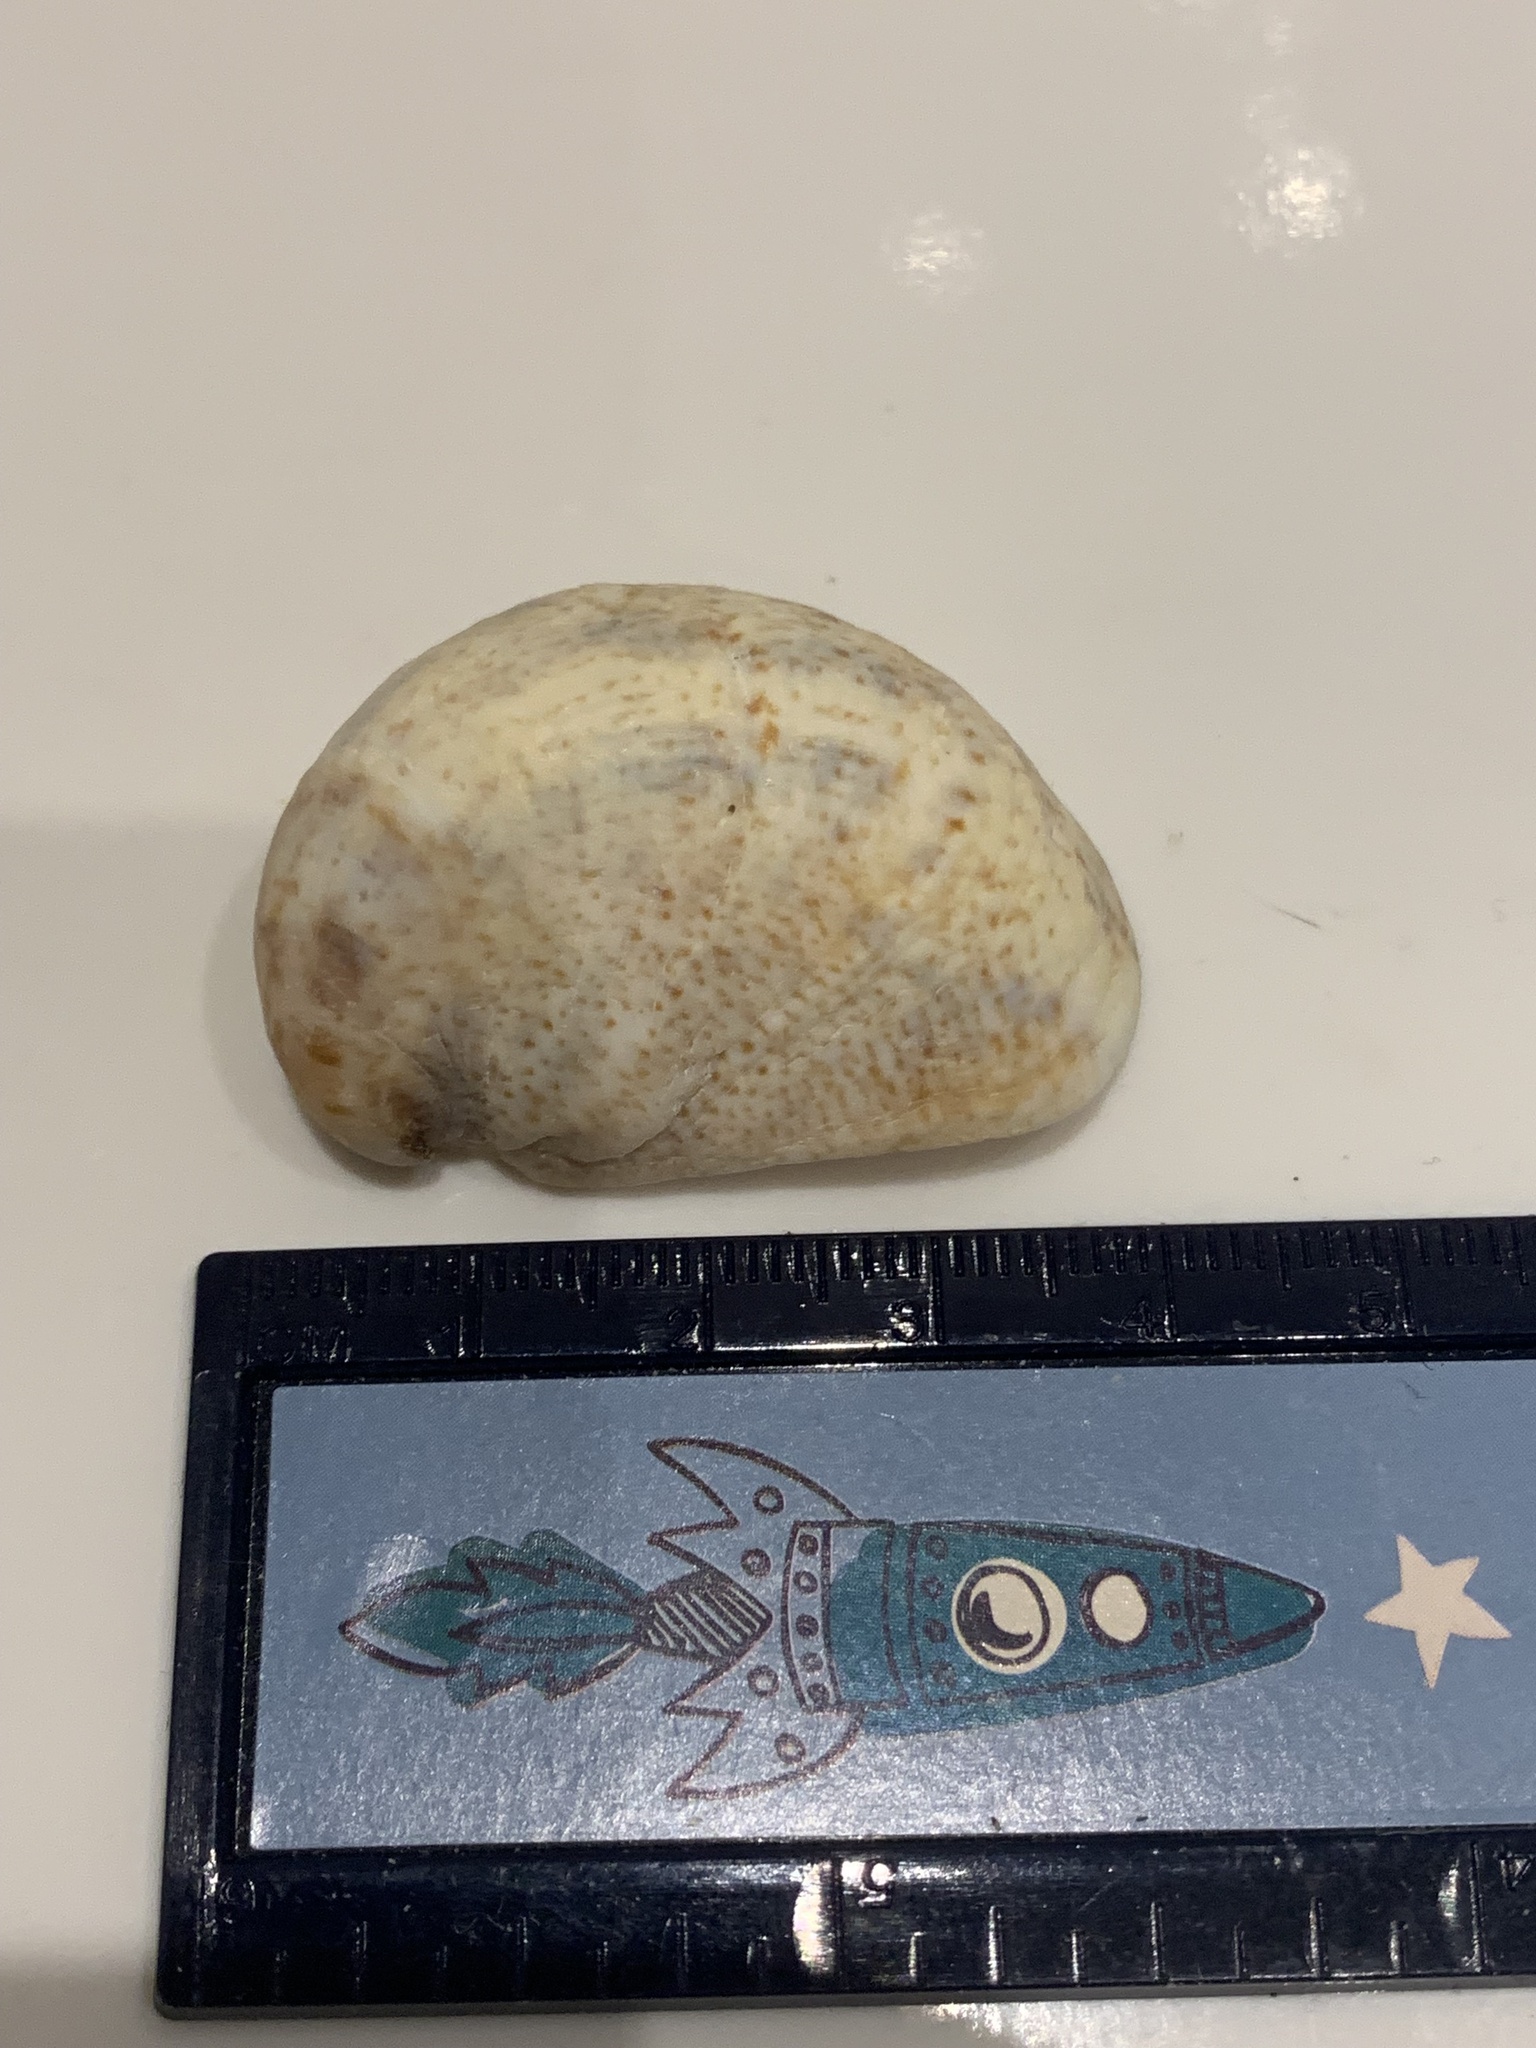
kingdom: Animalia
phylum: Mollusca
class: Gastropoda
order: Littorinimorpha
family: Calyptraeidae
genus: Crepidula
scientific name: Crepidula fornicata
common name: Slipper limpet
